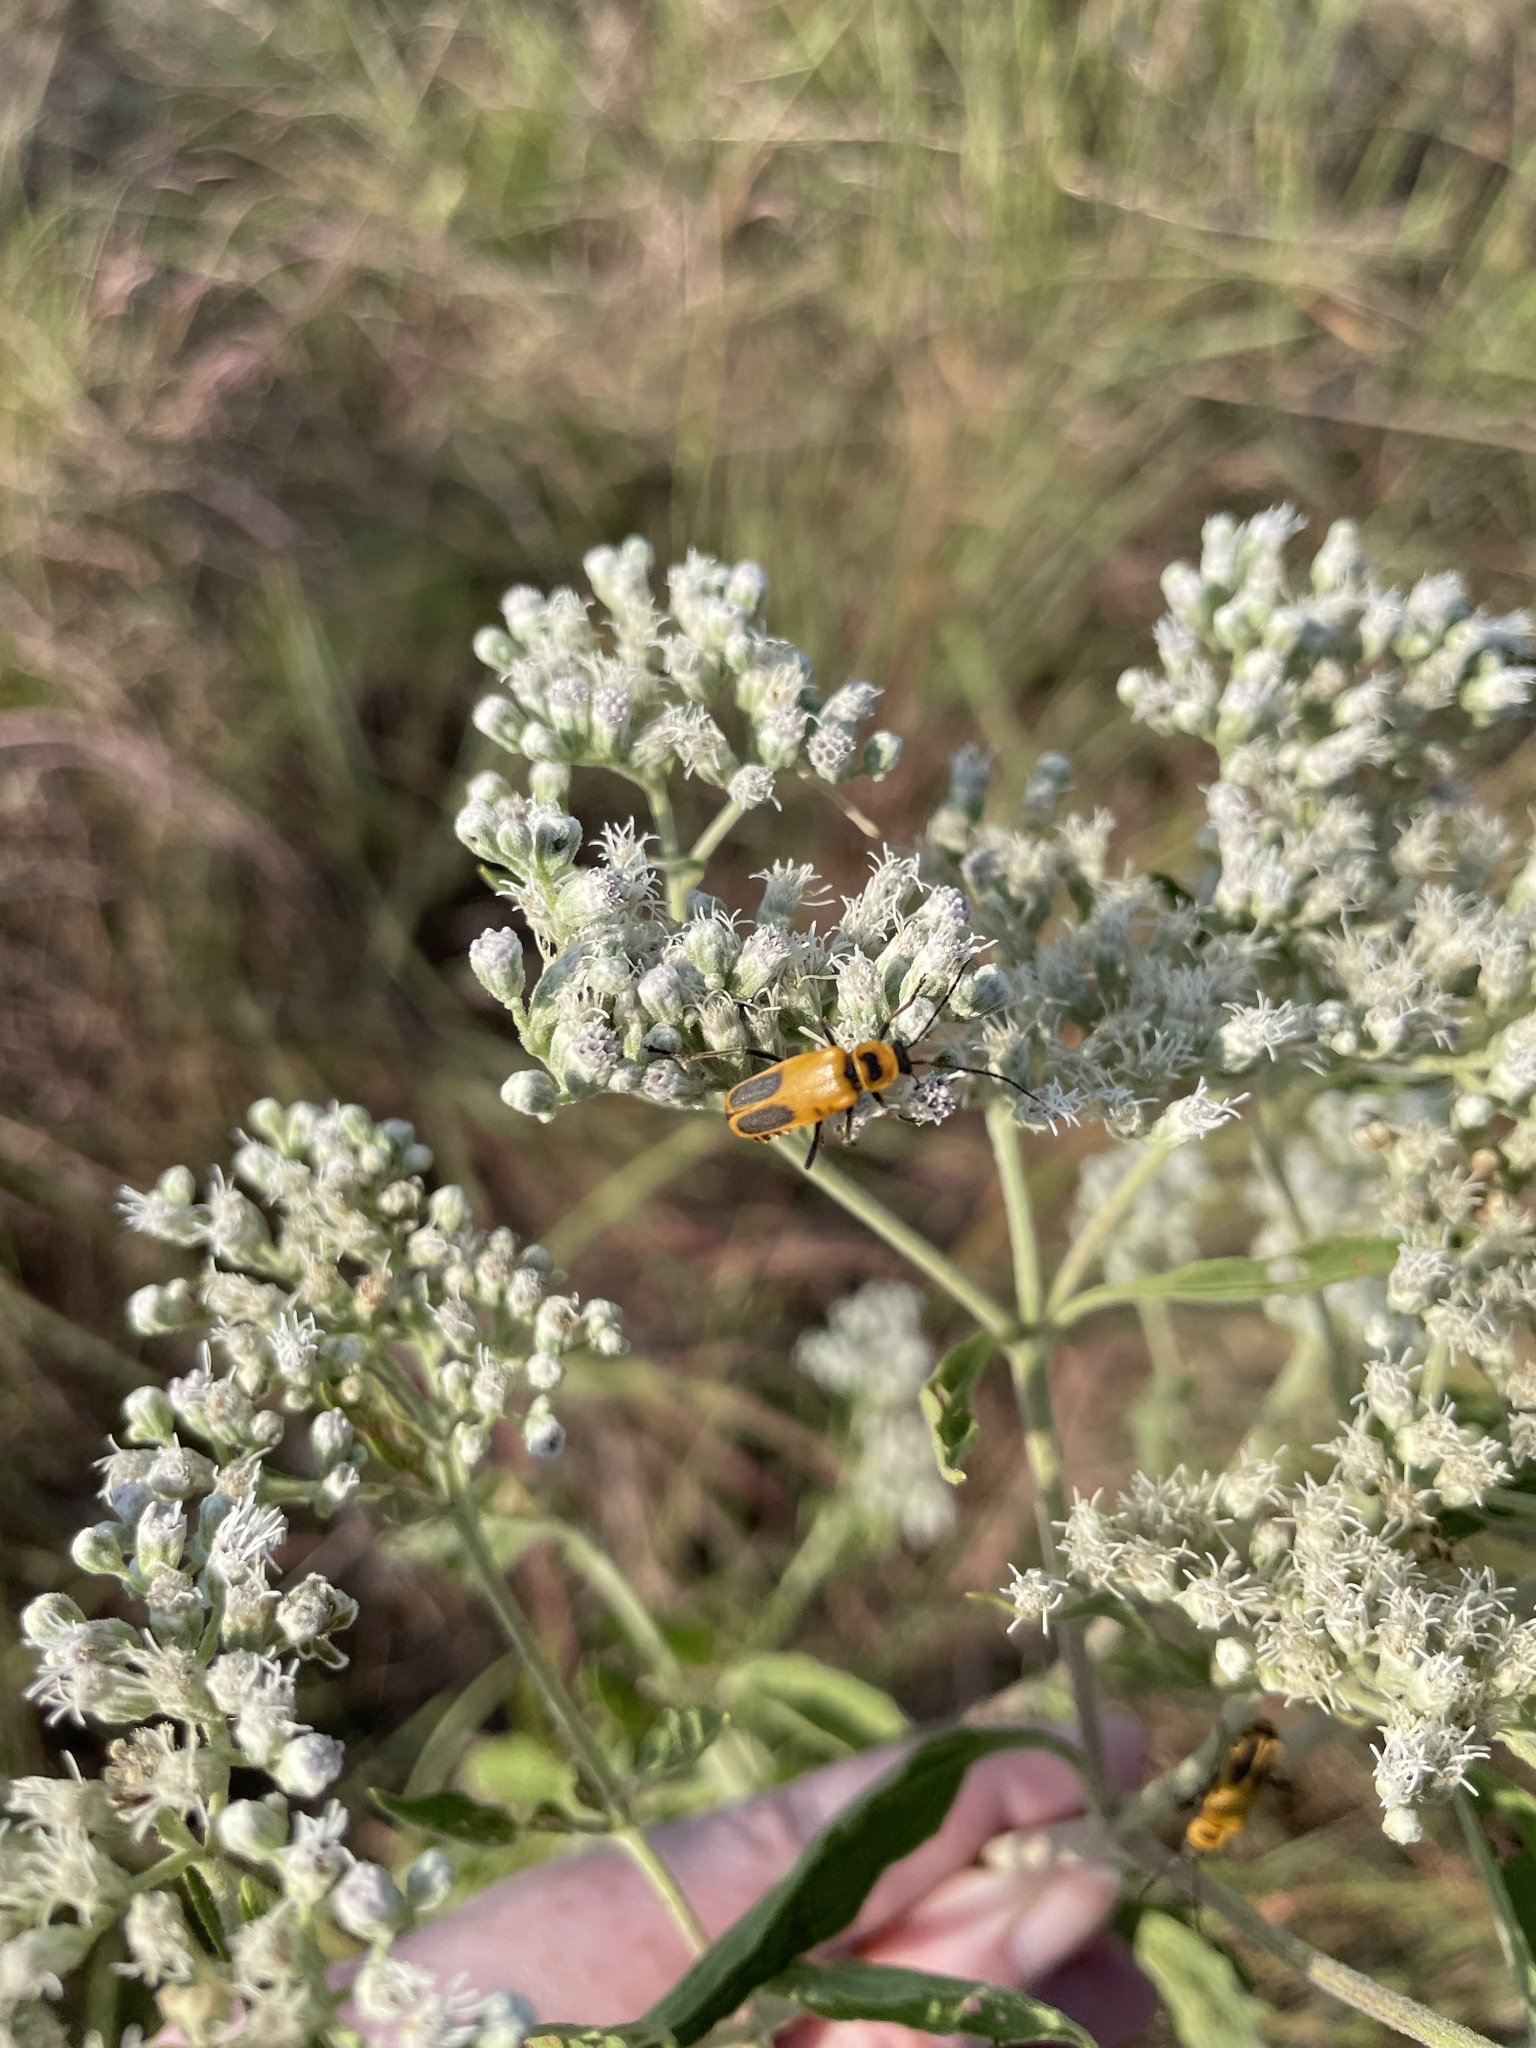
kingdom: Animalia
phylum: Arthropoda
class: Insecta
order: Coleoptera
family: Cantharidae
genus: Chauliognathus
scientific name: Chauliognathus pensylvanicus
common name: Goldenrod soldier beetle
